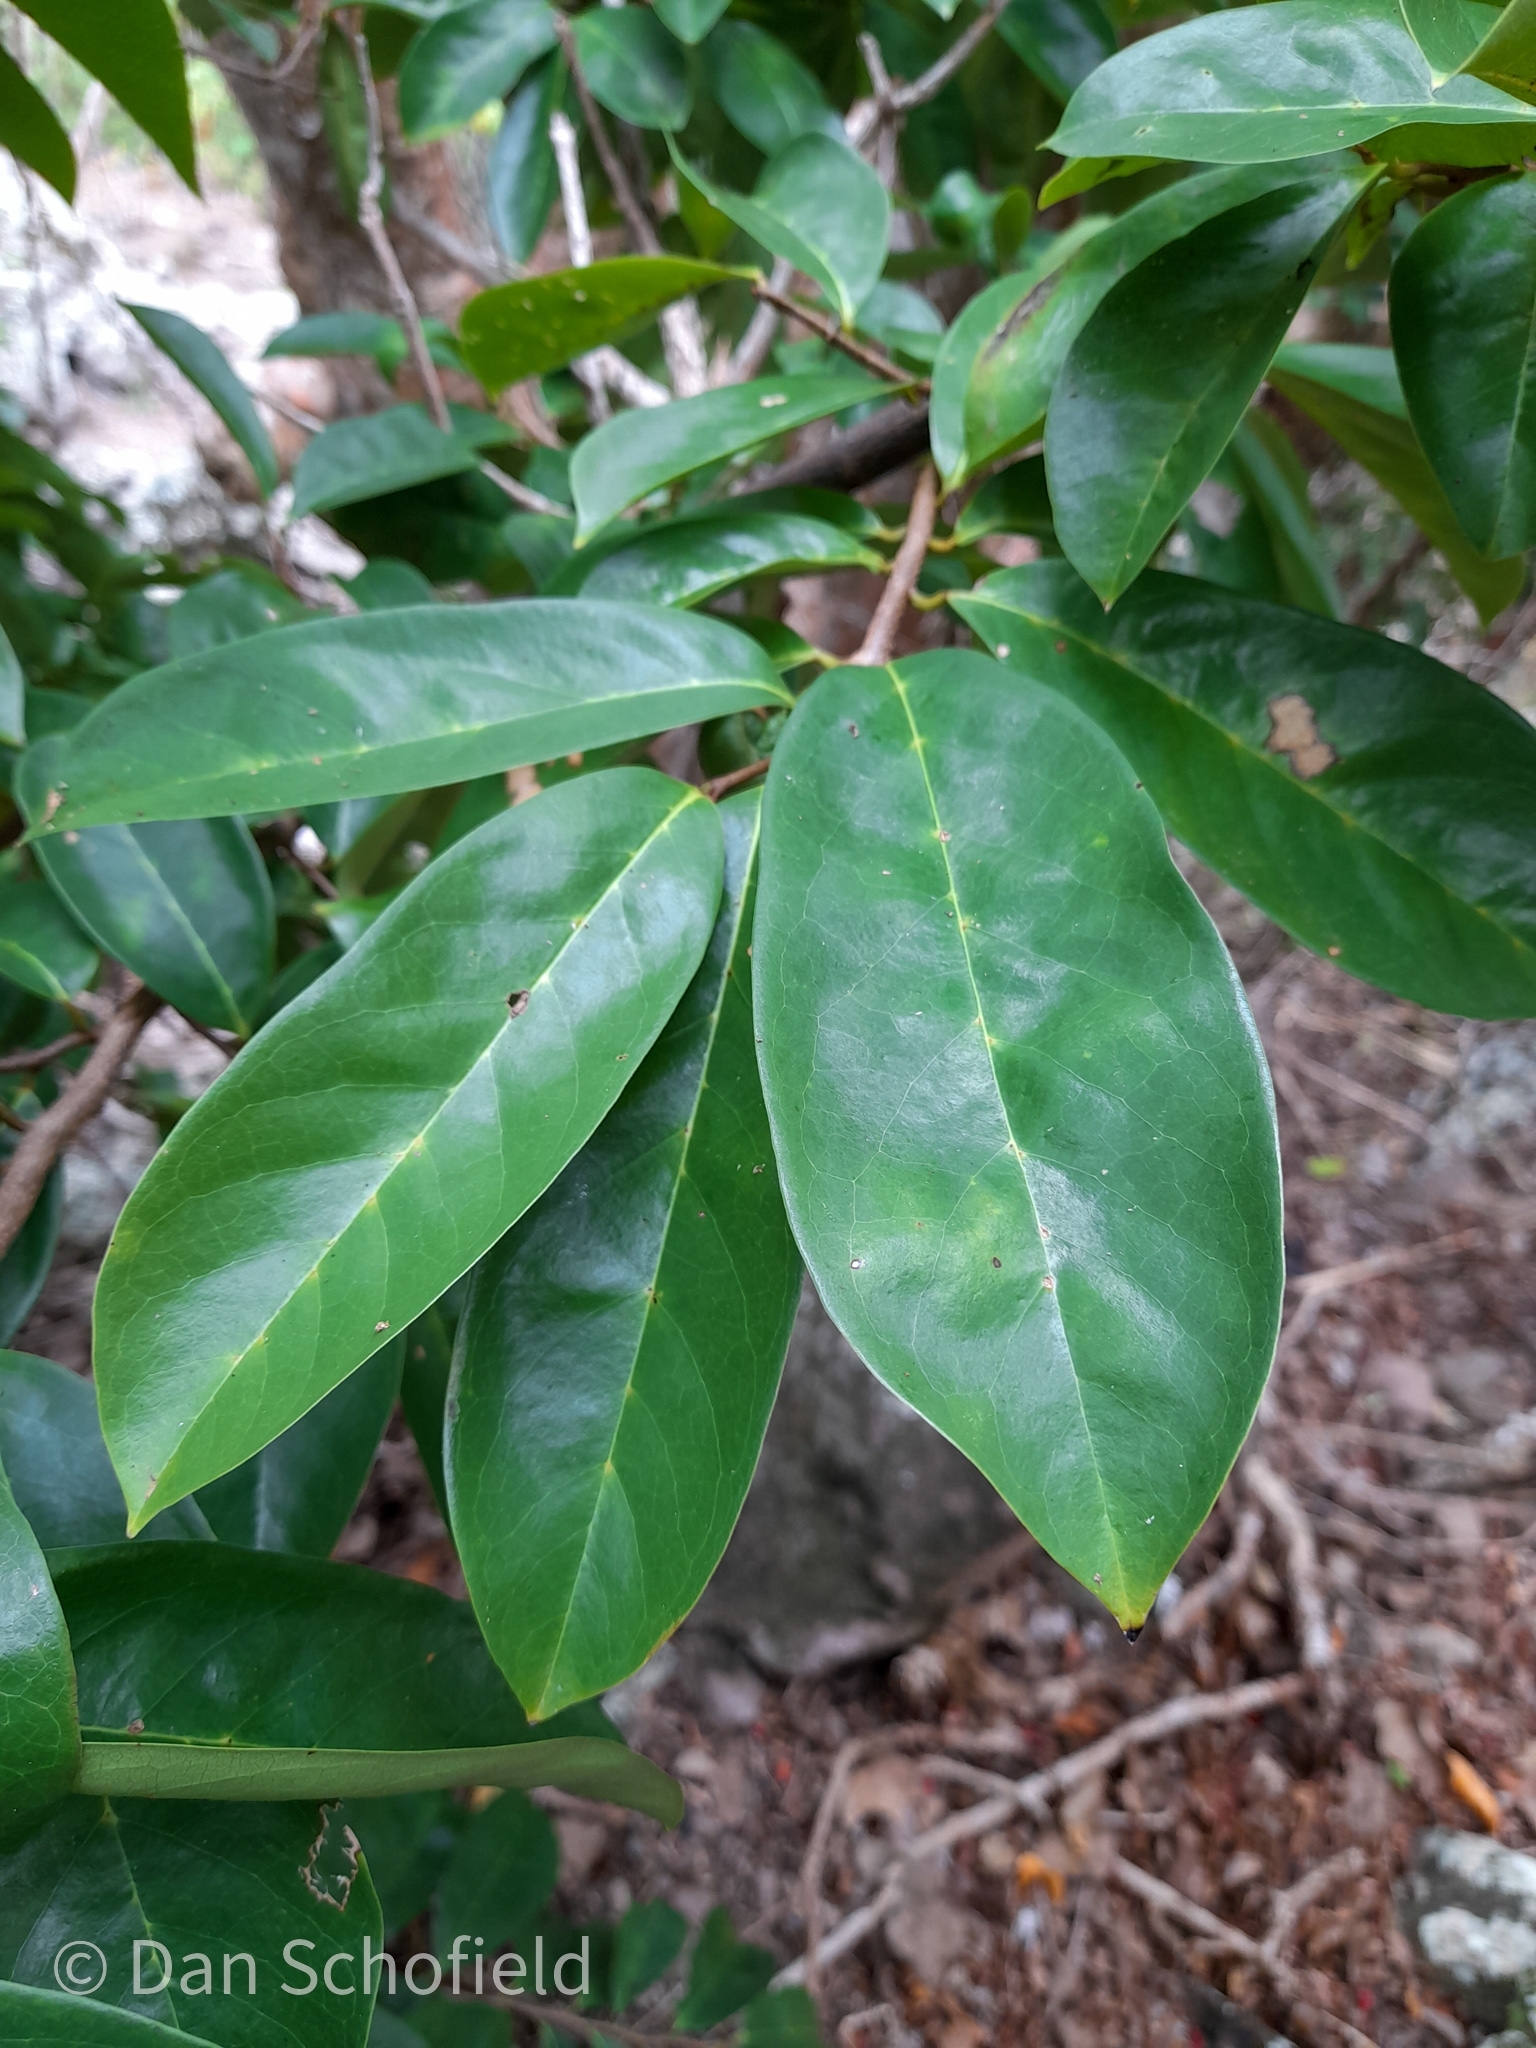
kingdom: Plantae
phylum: Tracheophyta
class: Magnoliopsida
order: Magnoliales
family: Annonaceae
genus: Annona
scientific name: Annona muricata
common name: Soursop
